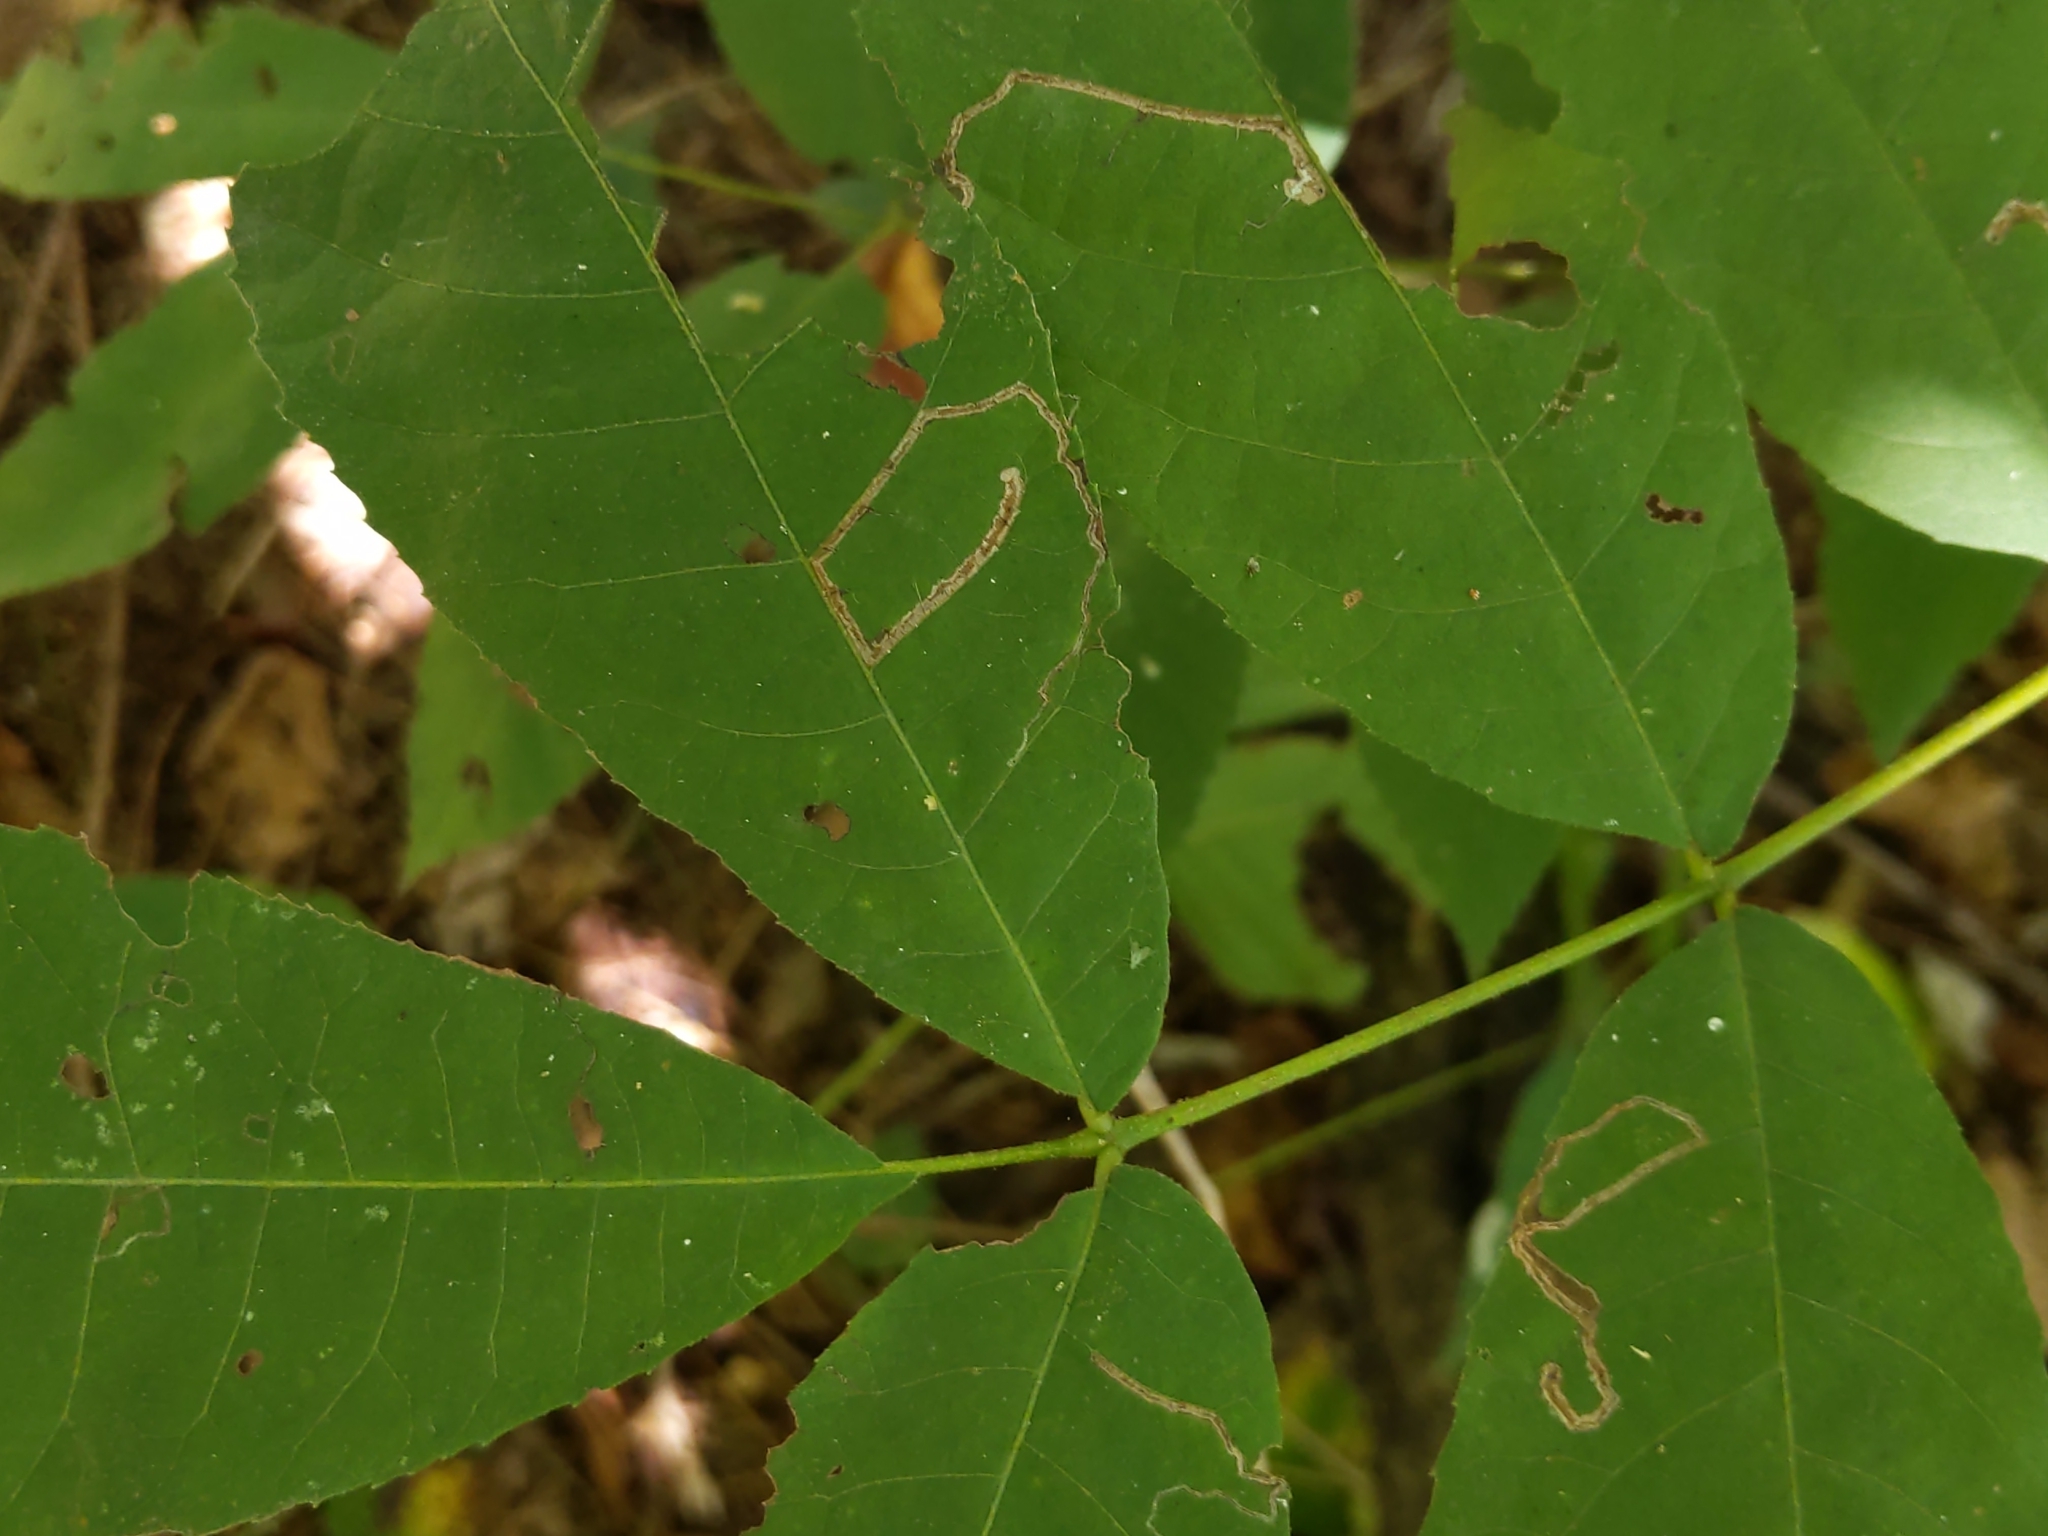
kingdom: Animalia
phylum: Arthropoda
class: Insecta
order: Lepidoptera
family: Nepticulidae
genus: Stigmella
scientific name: Stigmella caryaefoliella
